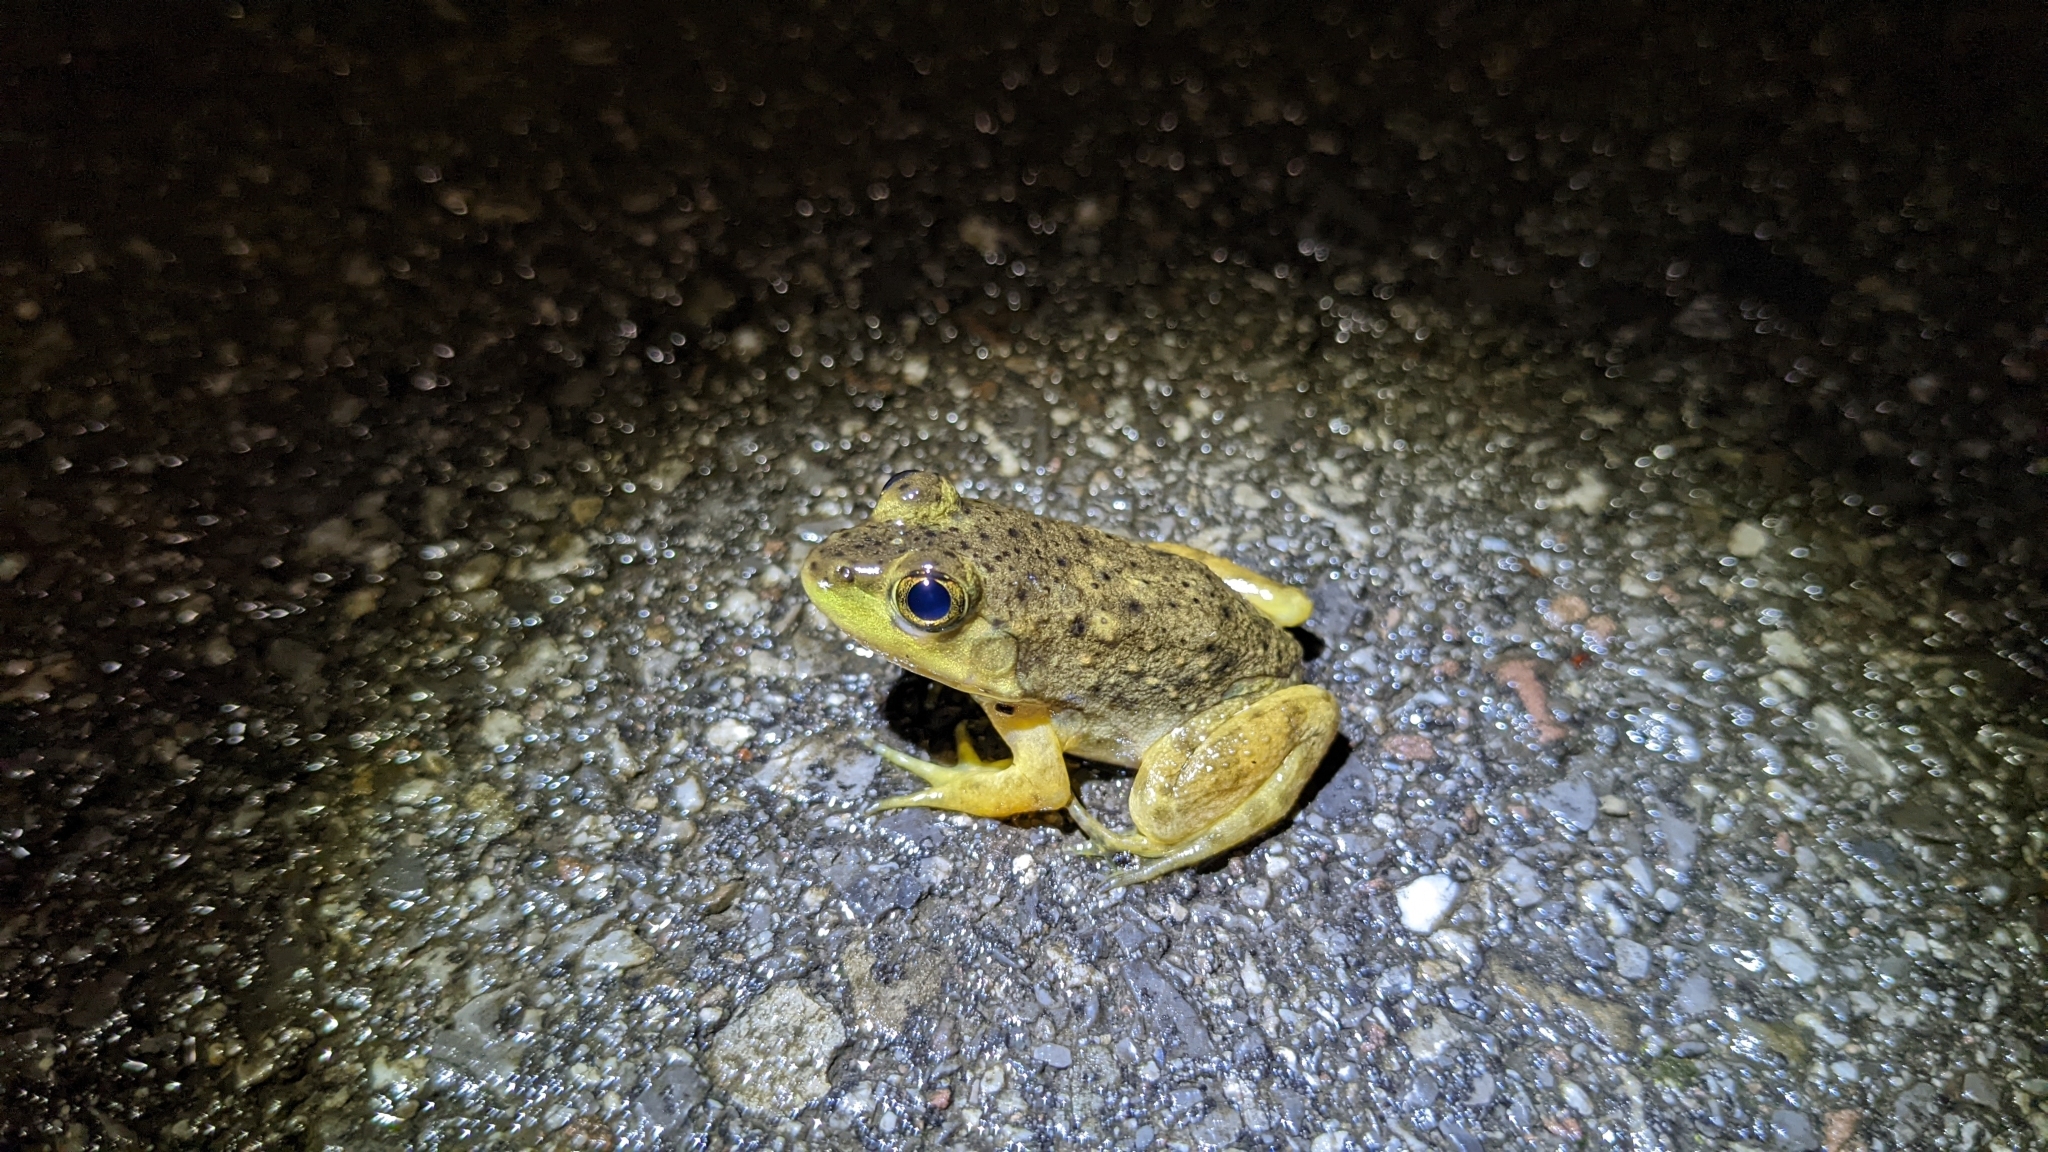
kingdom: Animalia
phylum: Chordata
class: Amphibia
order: Anura
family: Ranidae
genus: Lithobates
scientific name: Lithobates catesbeianus
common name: American bullfrog
